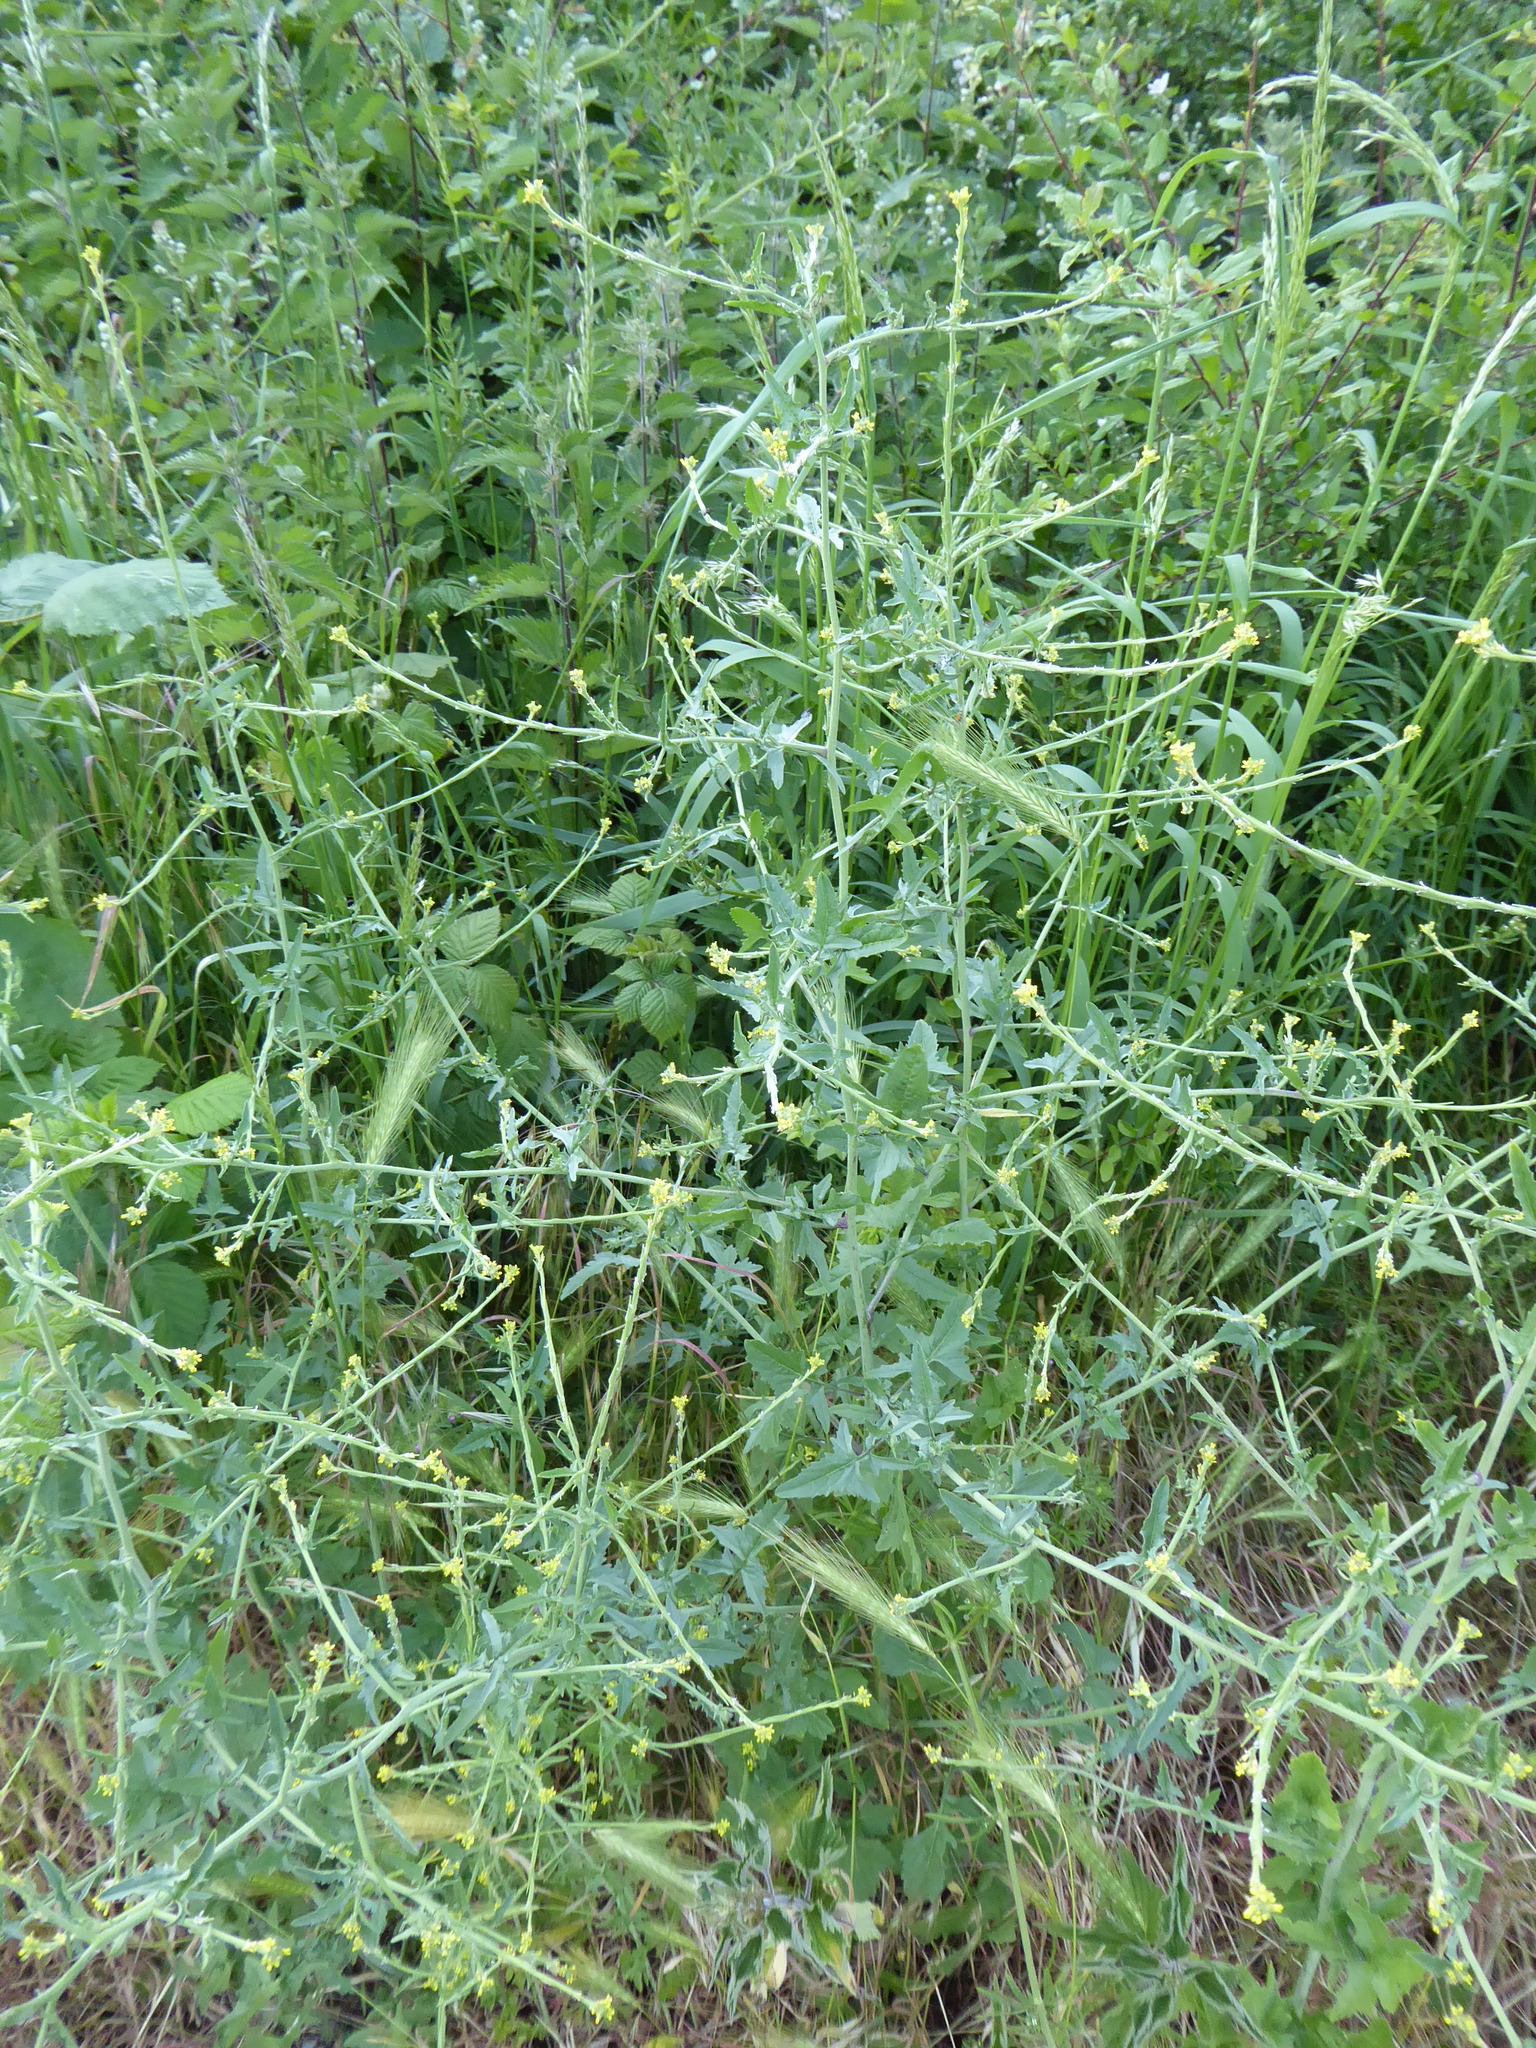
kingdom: Plantae
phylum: Tracheophyta
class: Magnoliopsida
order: Brassicales
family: Brassicaceae
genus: Sisymbrium
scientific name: Sisymbrium officinale
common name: Hedge mustard
